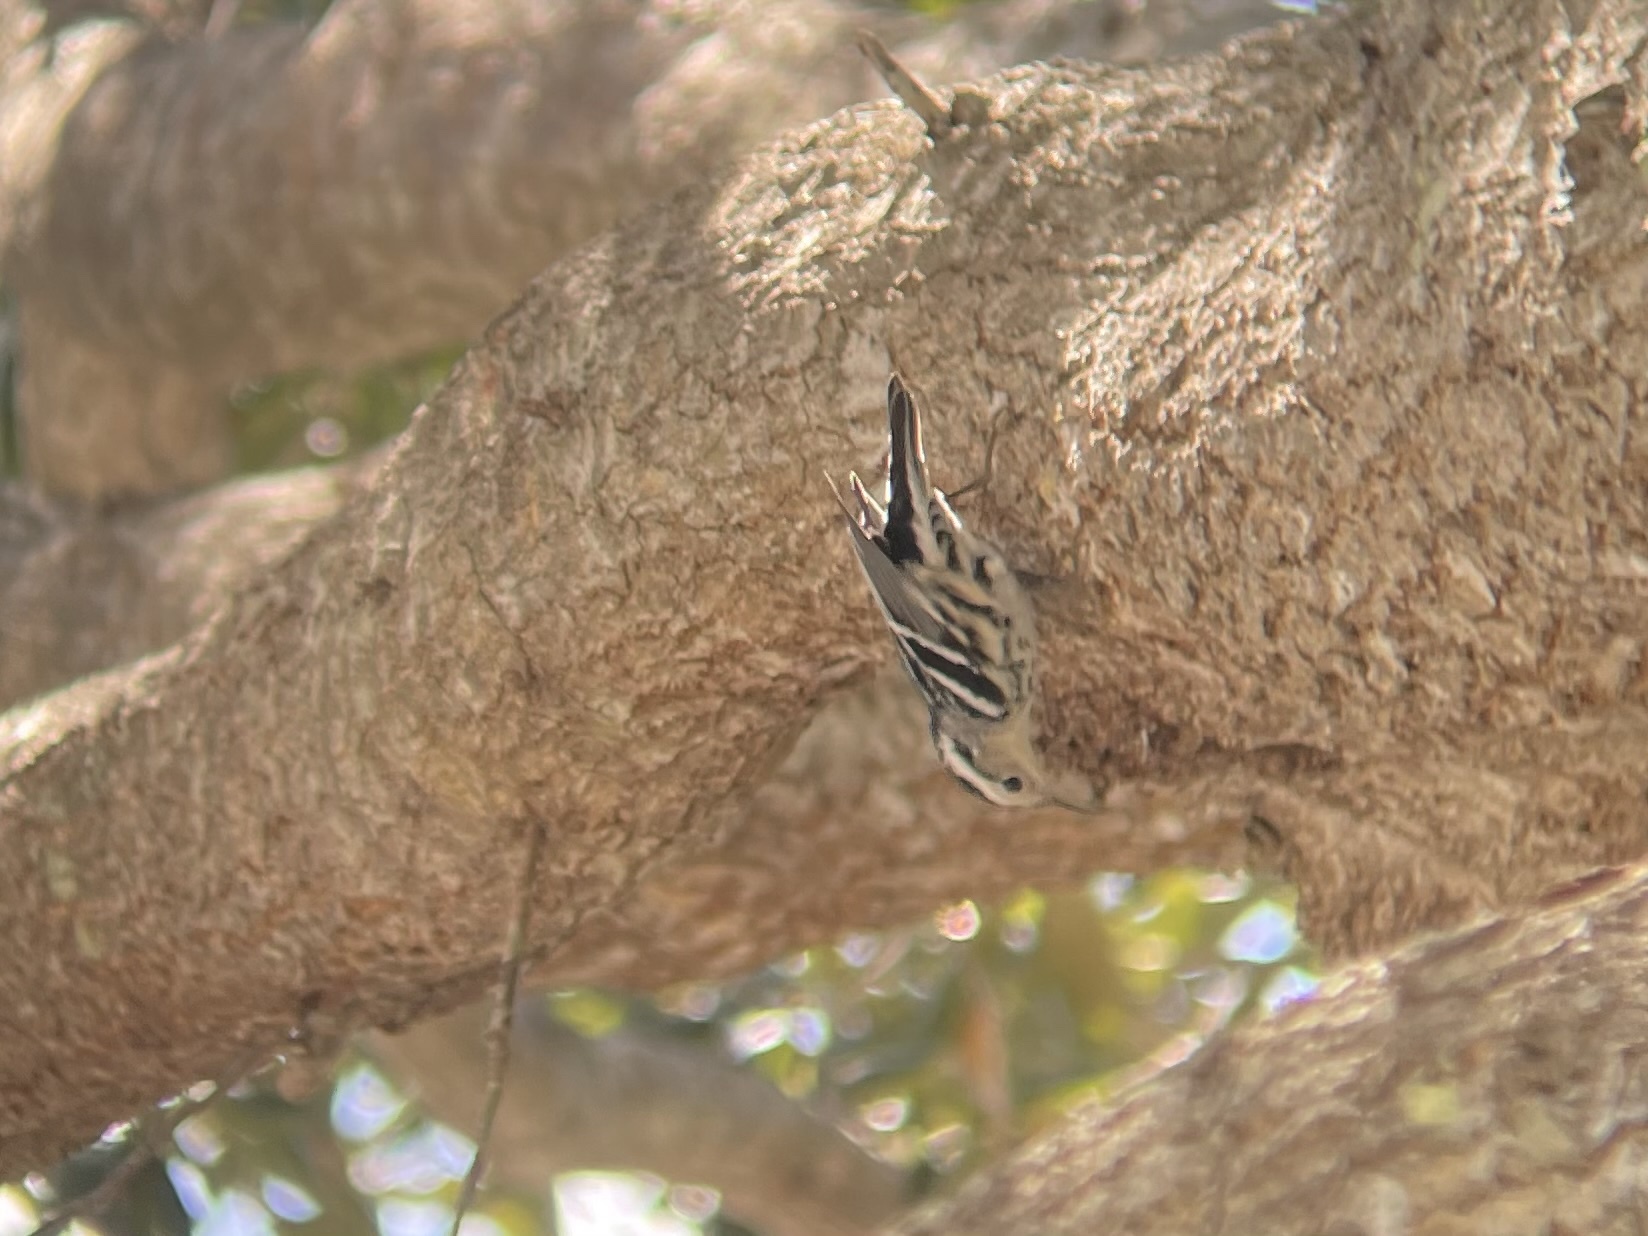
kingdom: Animalia
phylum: Chordata
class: Aves
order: Passeriformes
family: Parulidae
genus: Mniotilta
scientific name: Mniotilta varia
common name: Black-and-white warbler
